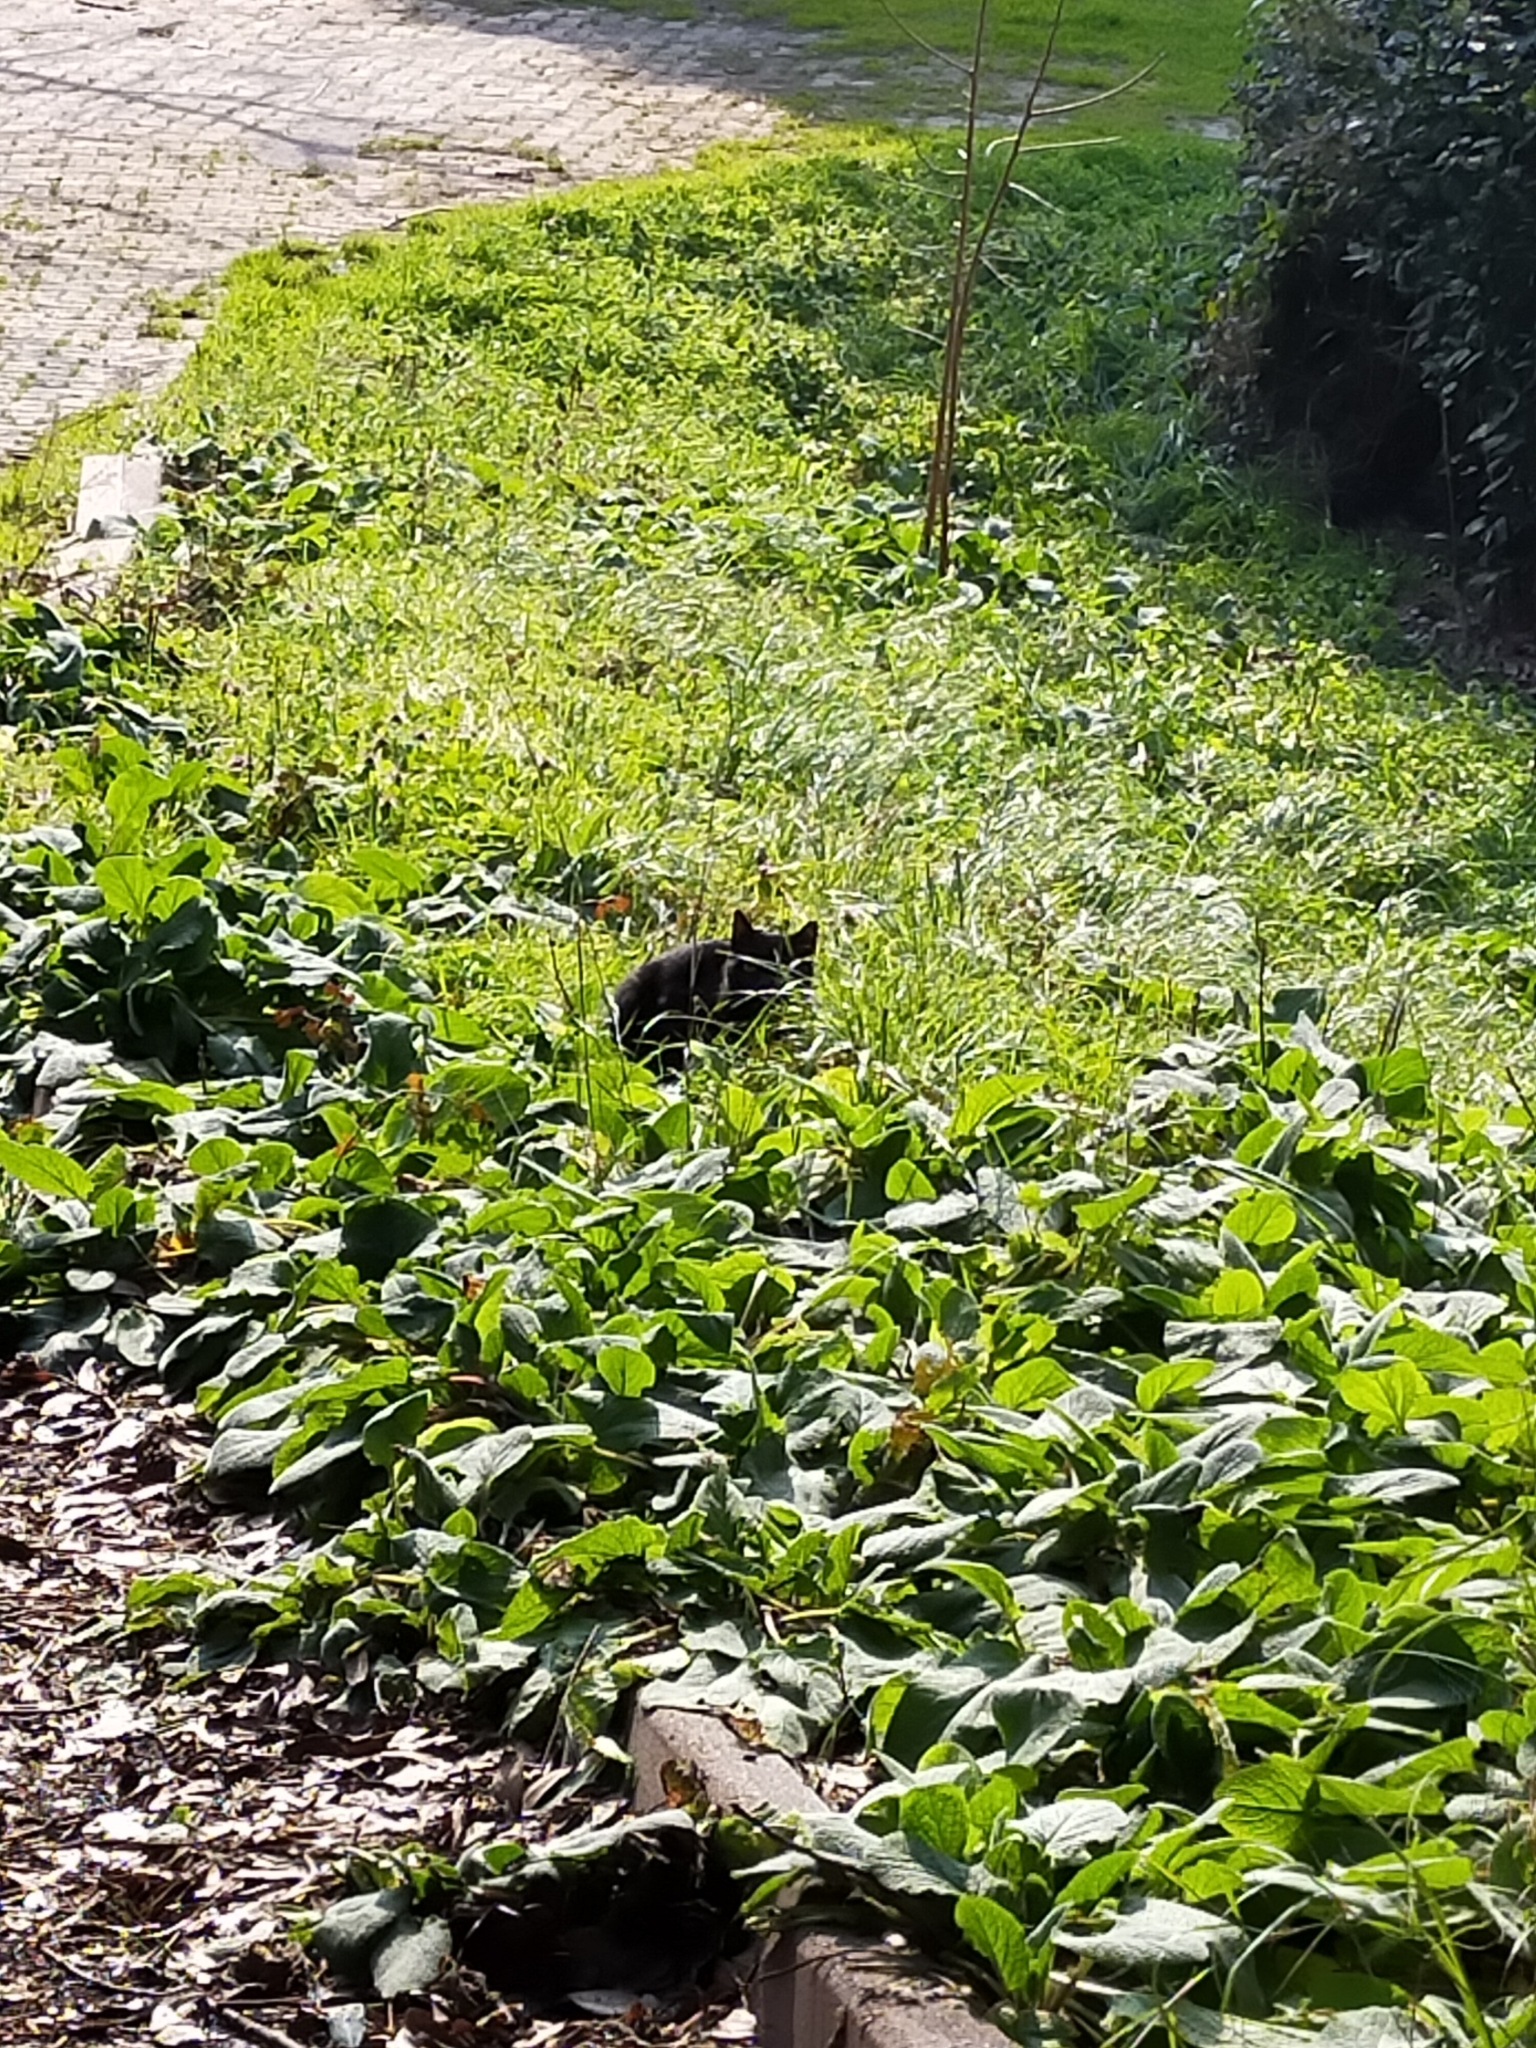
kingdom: Animalia
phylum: Chordata
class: Mammalia
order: Carnivora
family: Felidae
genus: Felis
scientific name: Felis catus
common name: Domestic cat
